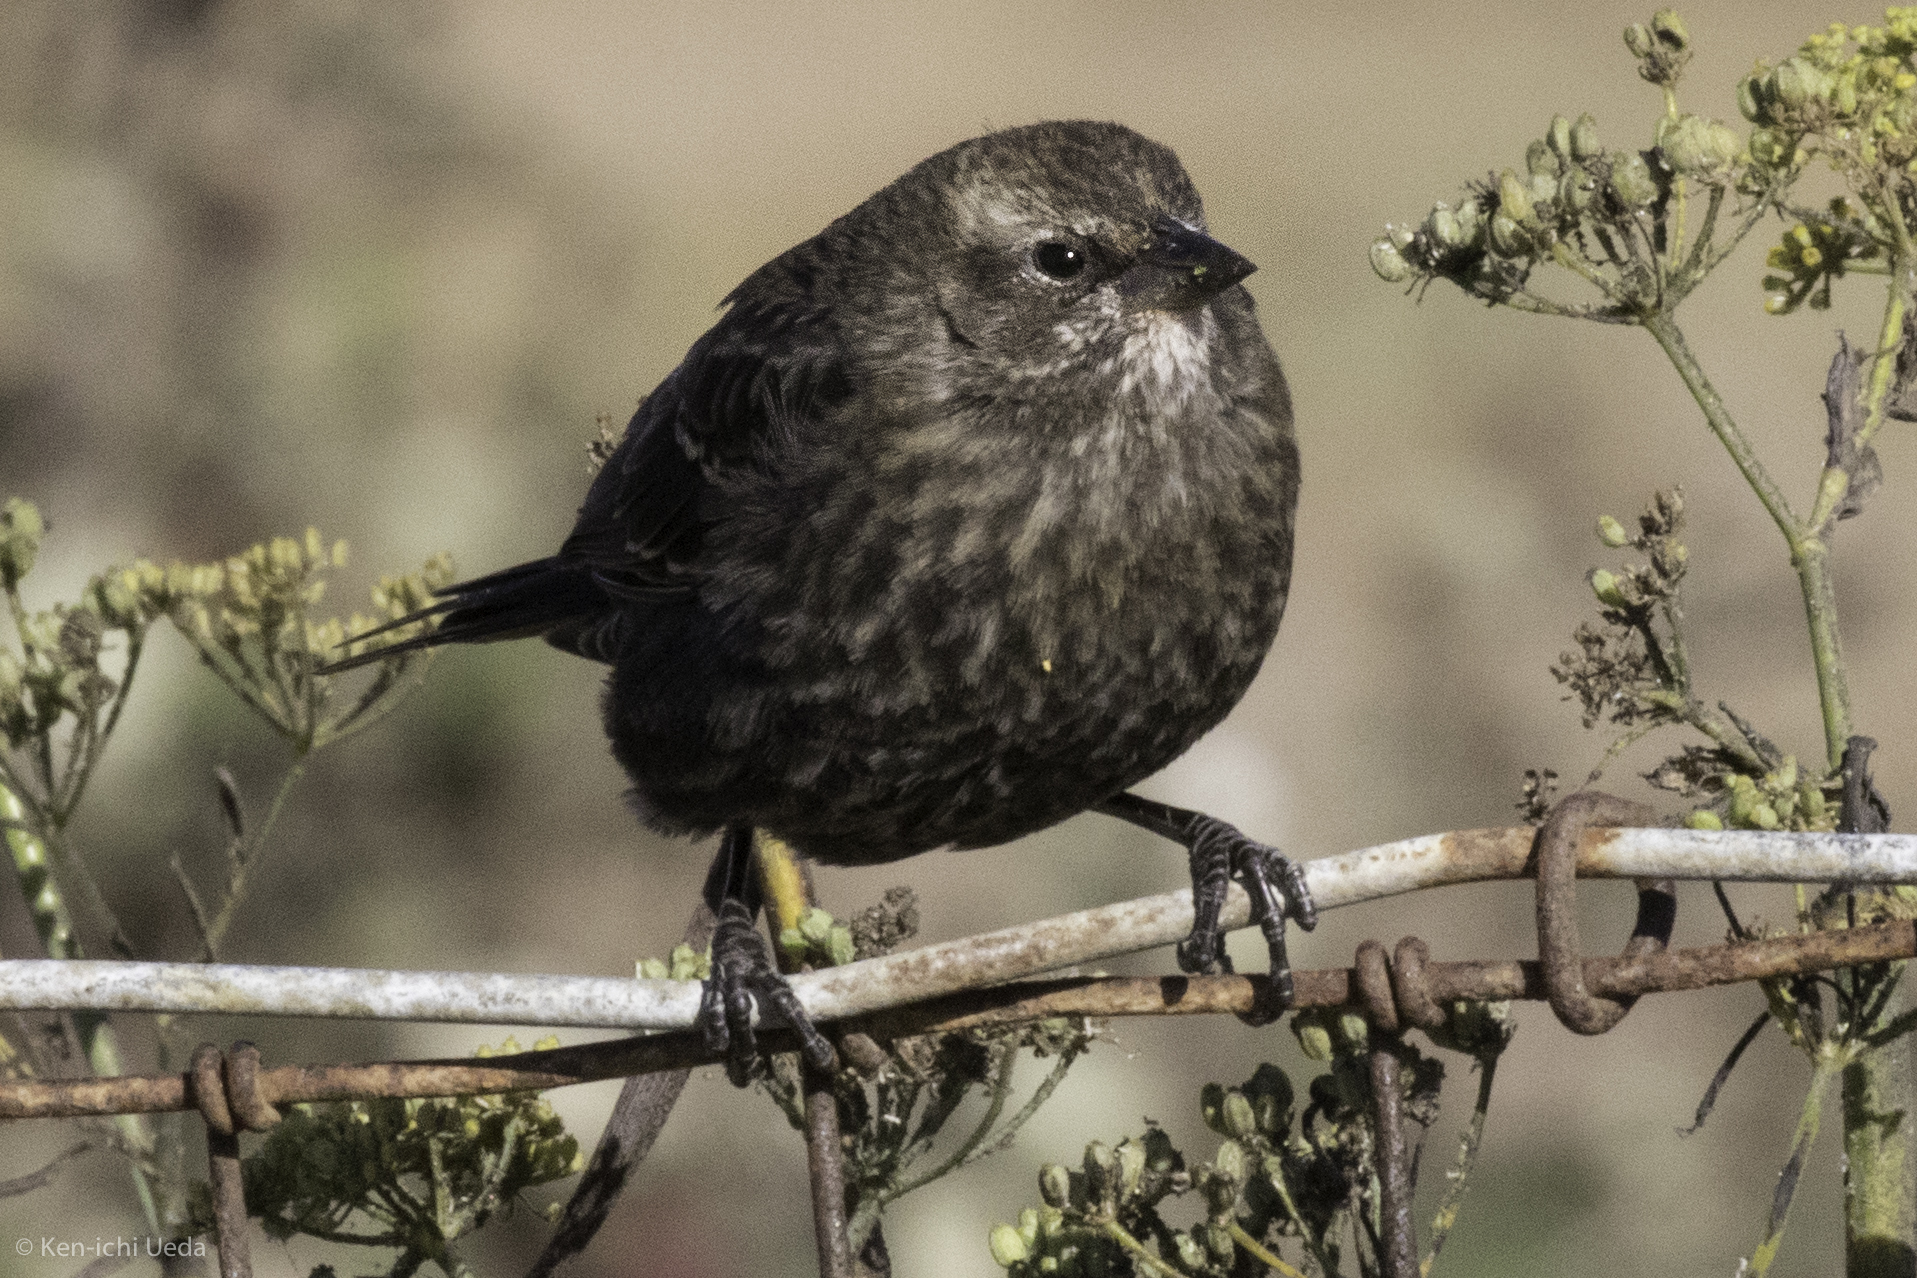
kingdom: Animalia
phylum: Chordata
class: Aves
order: Passeriformes
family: Icteridae
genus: Agelaius
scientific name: Agelaius phoeniceus
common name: Red-winged blackbird
